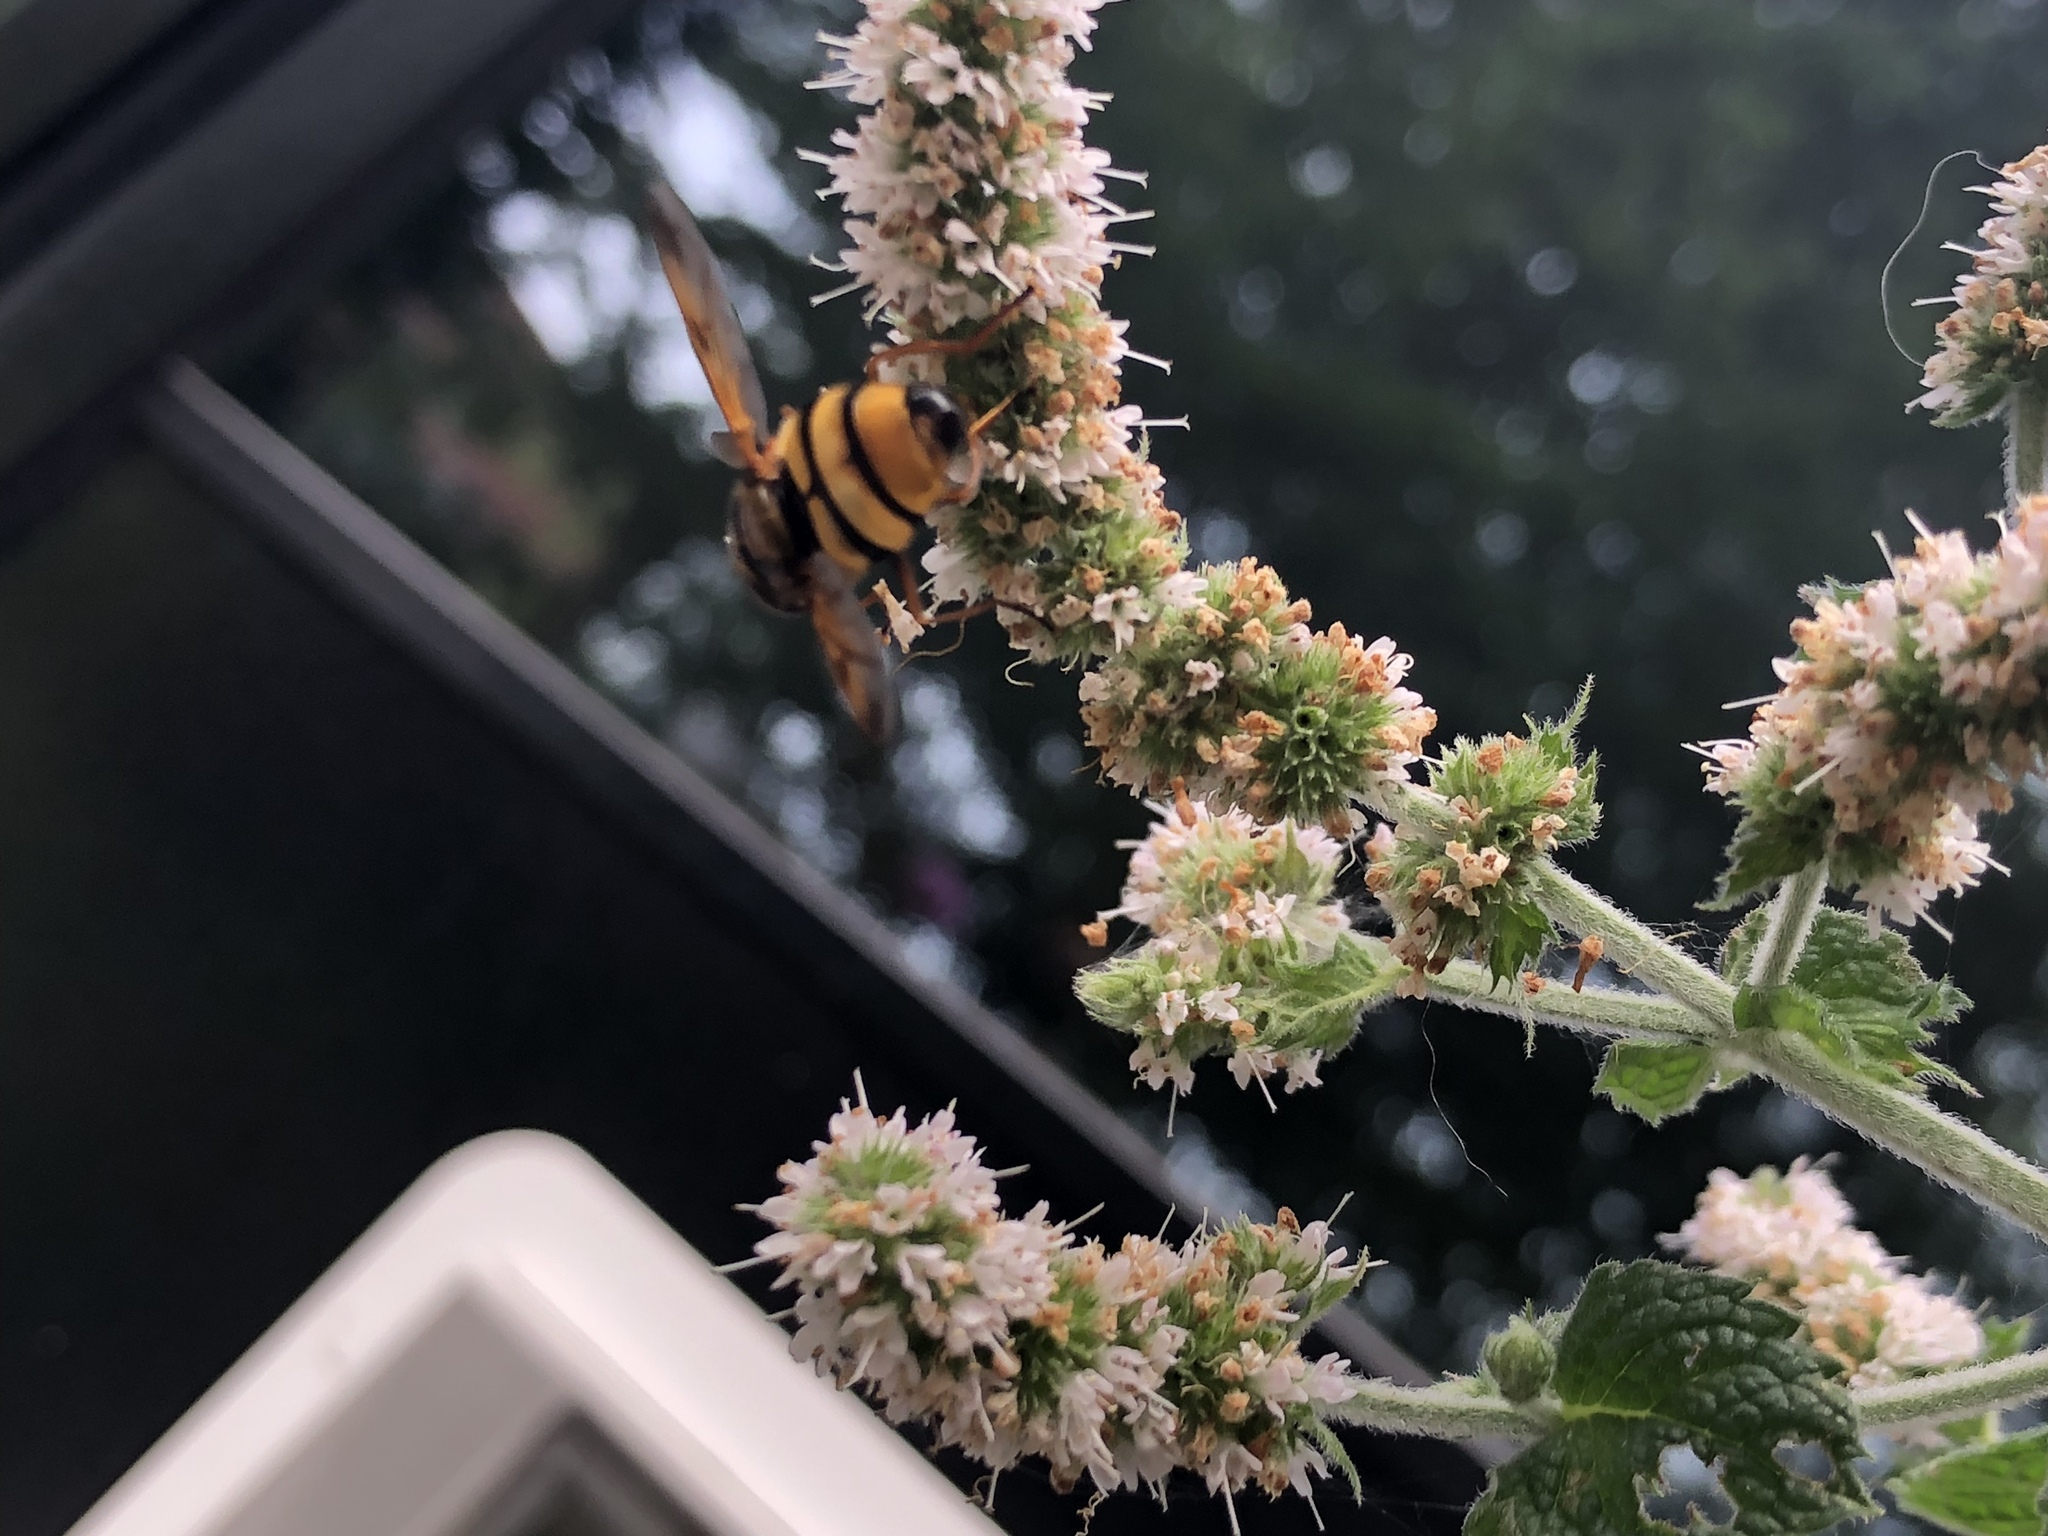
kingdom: Animalia
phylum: Arthropoda
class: Insecta
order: Diptera
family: Syrphidae
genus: Volucella
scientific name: Volucella zonaria
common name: Hornet hoverfly
